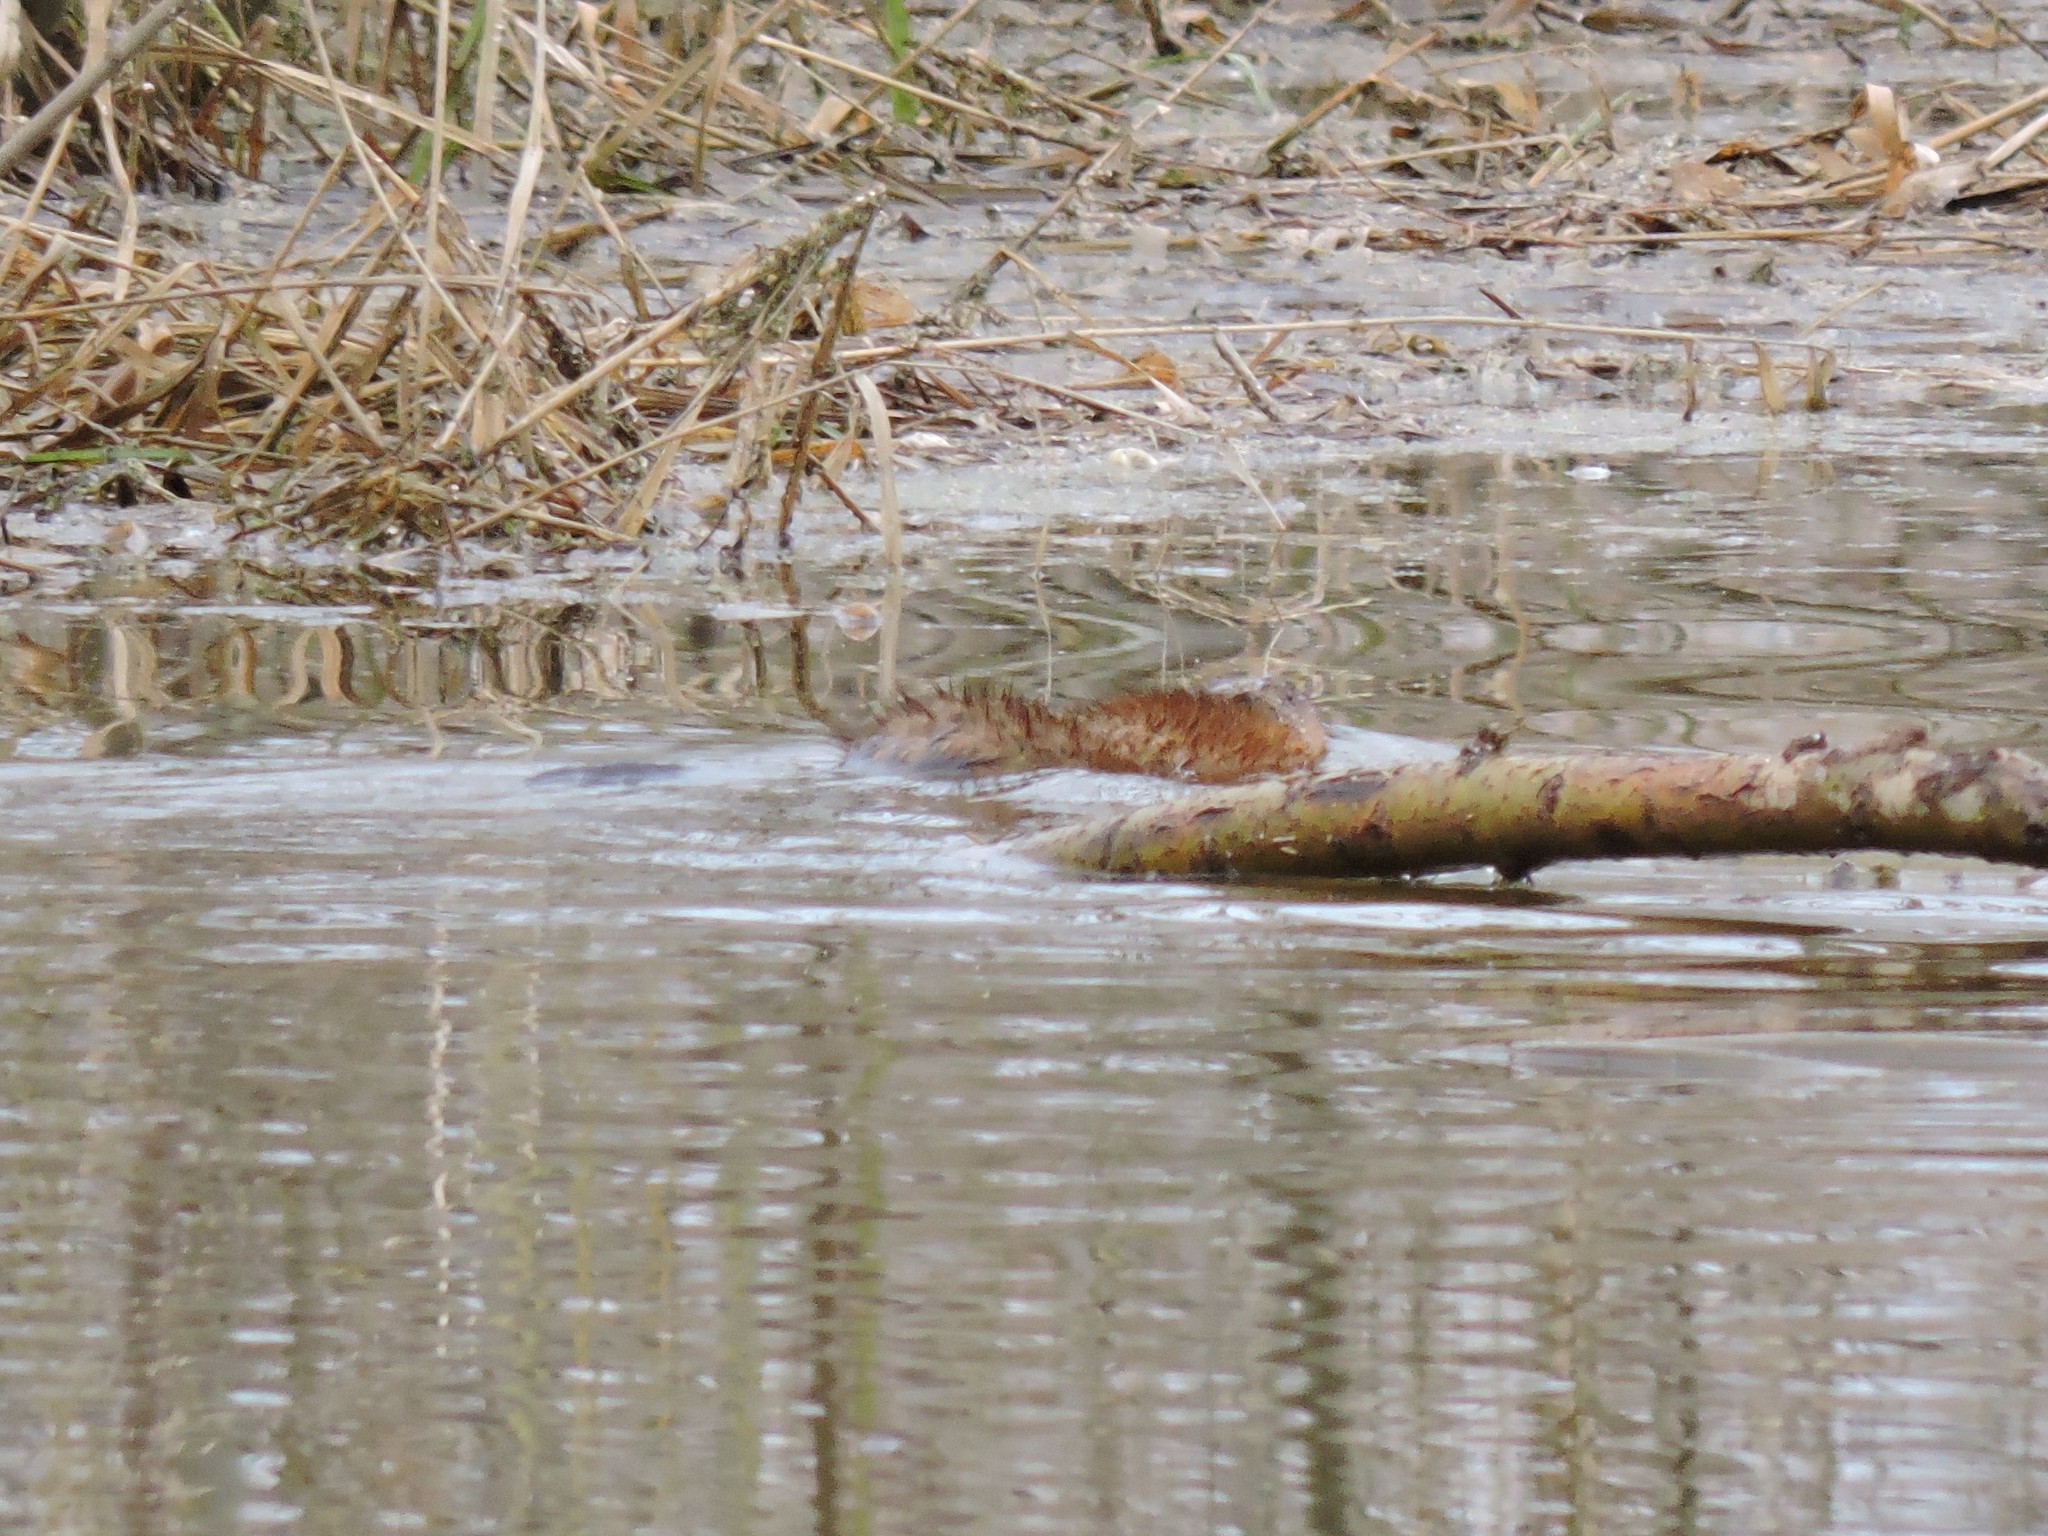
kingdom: Animalia
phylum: Chordata
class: Mammalia
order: Rodentia
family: Cricetidae
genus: Ondatra
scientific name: Ondatra zibethicus
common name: Muskrat
